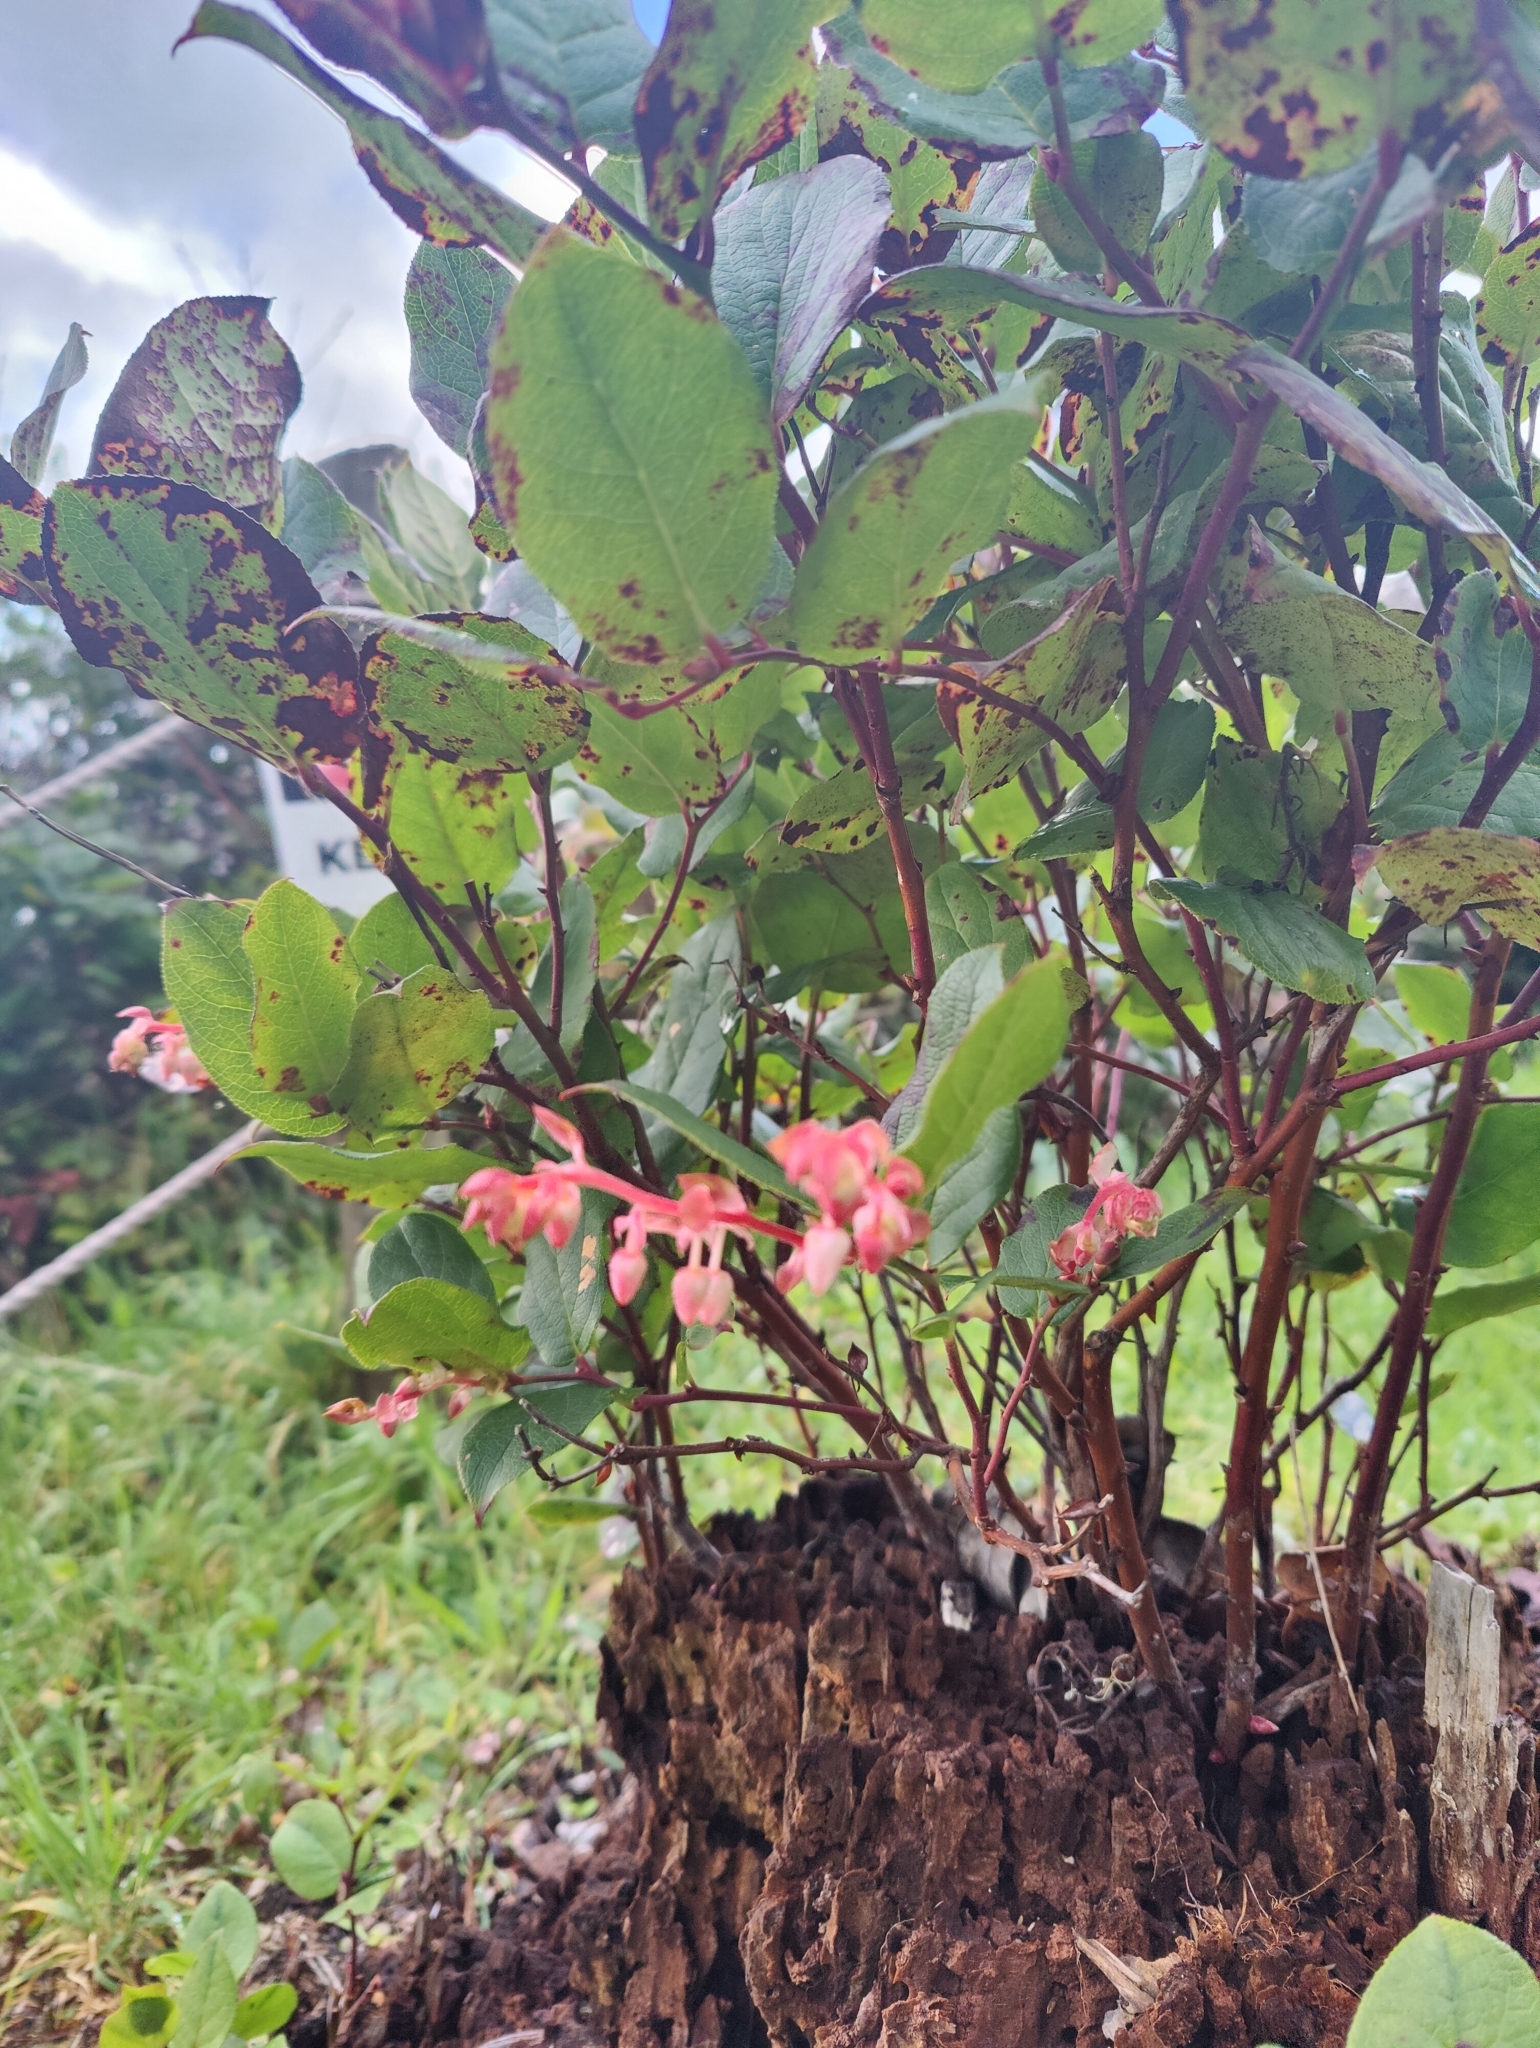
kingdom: Plantae
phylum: Tracheophyta
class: Magnoliopsida
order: Ericales
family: Ericaceae
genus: Gaultheria
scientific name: Gaultheria shallon
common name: Shallon
